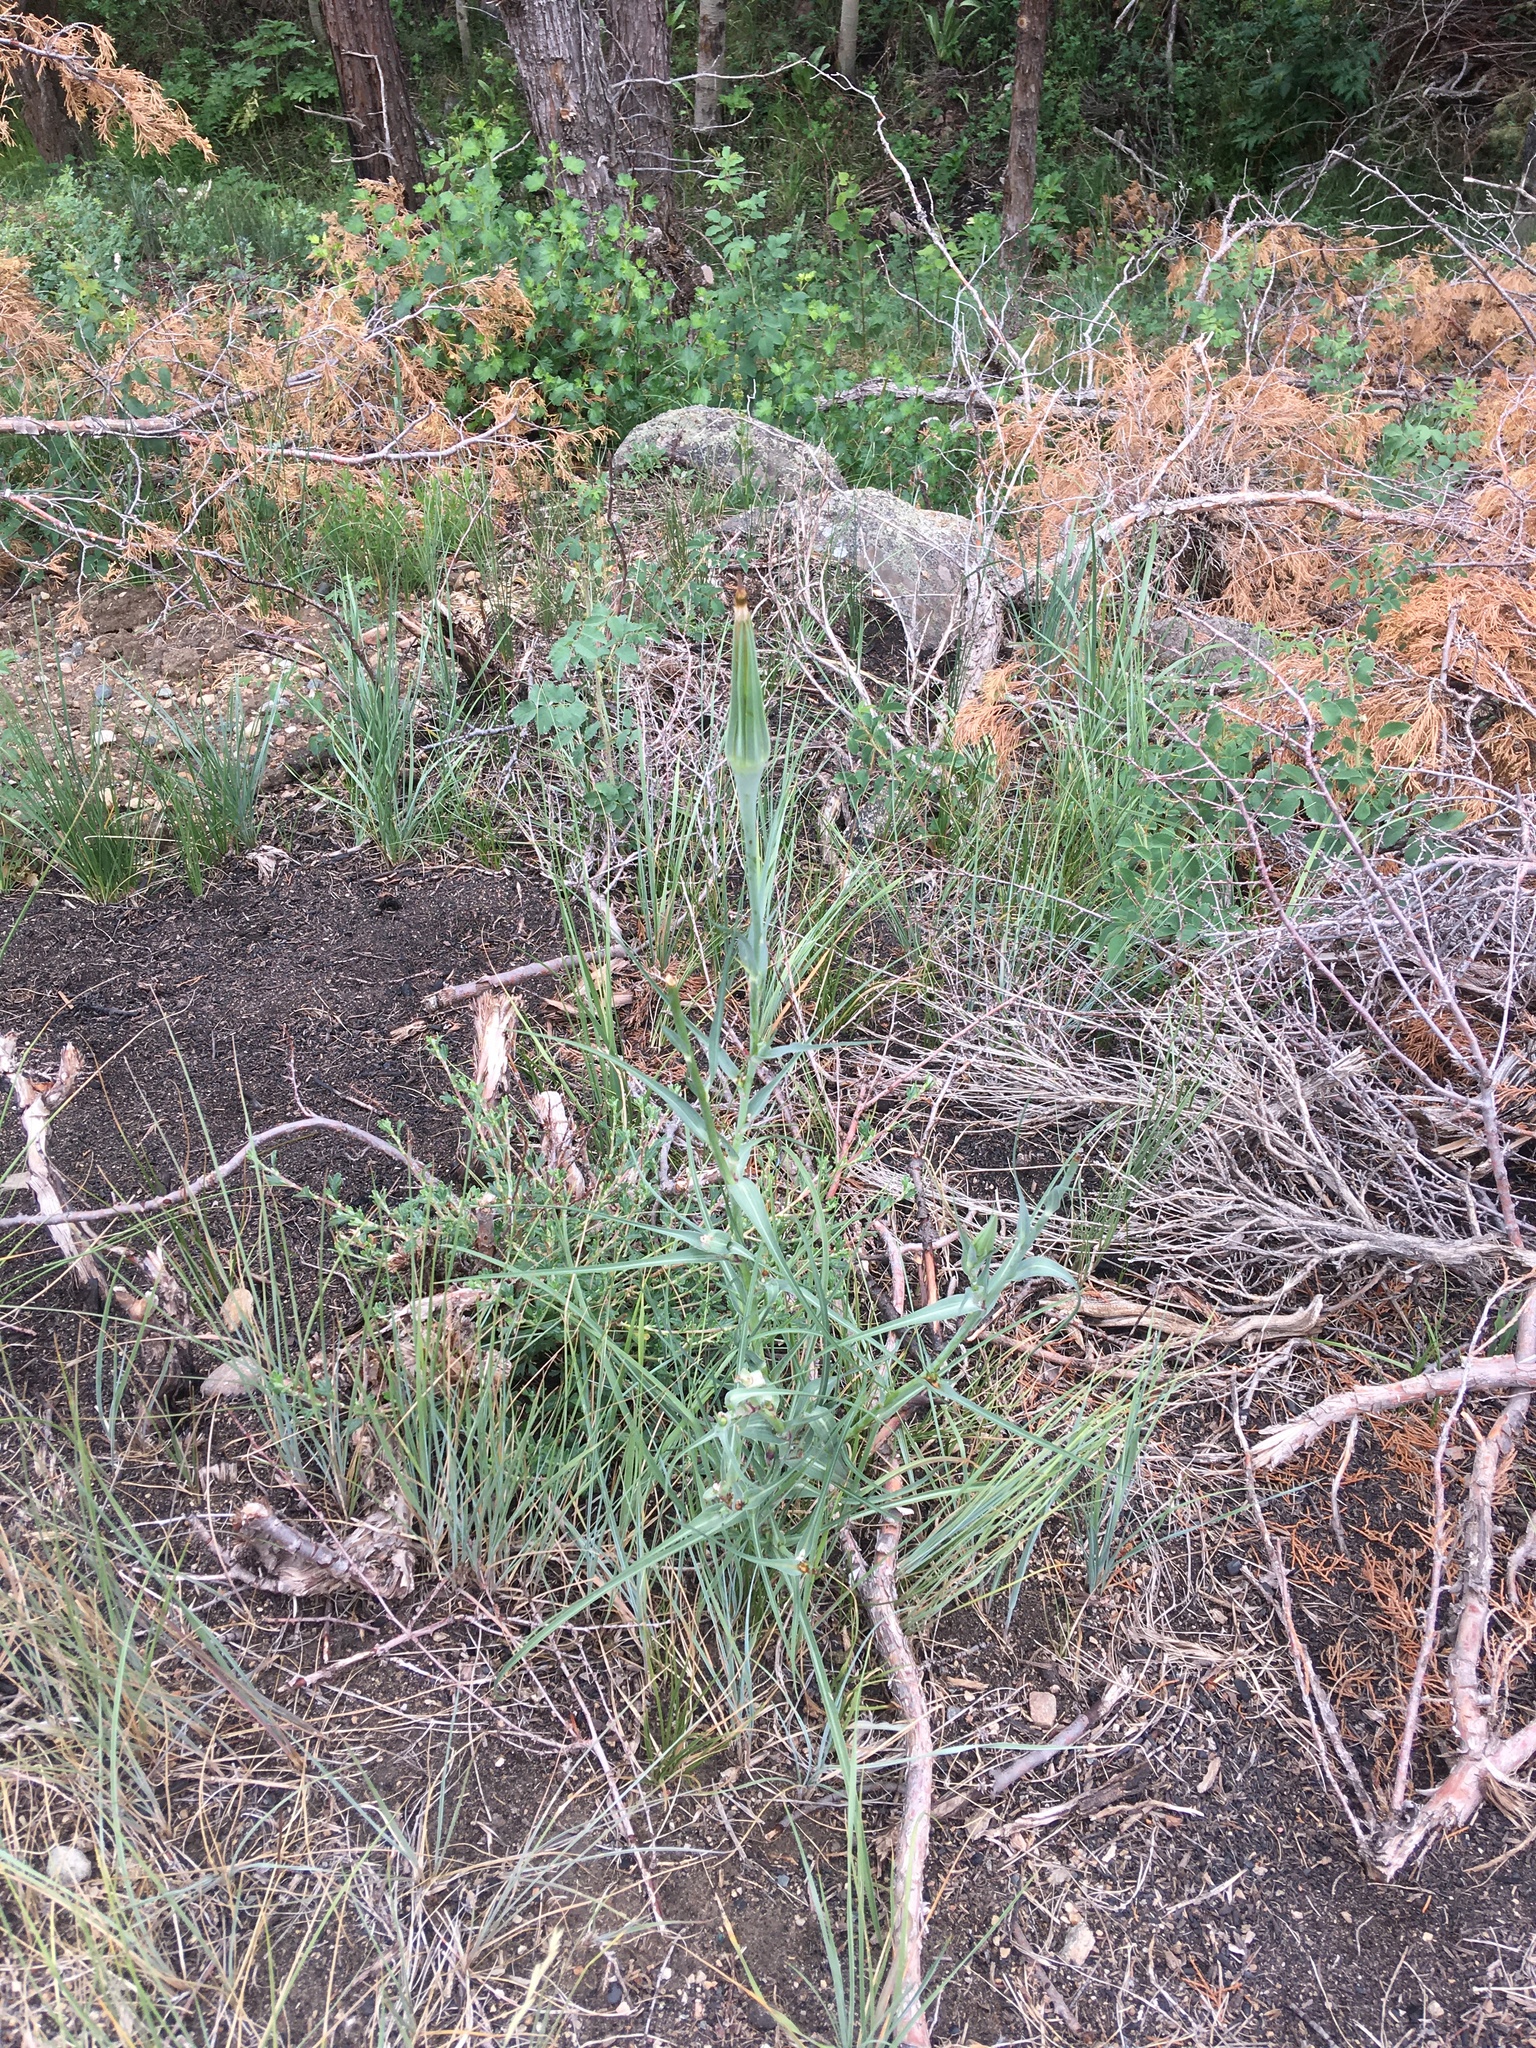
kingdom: Plantae
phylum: Tracheophyta
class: Magnoliopsida
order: Asterales
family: Asteraceae
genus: Tragopogon
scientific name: Tragopogon dubius
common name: Yellow salsify
